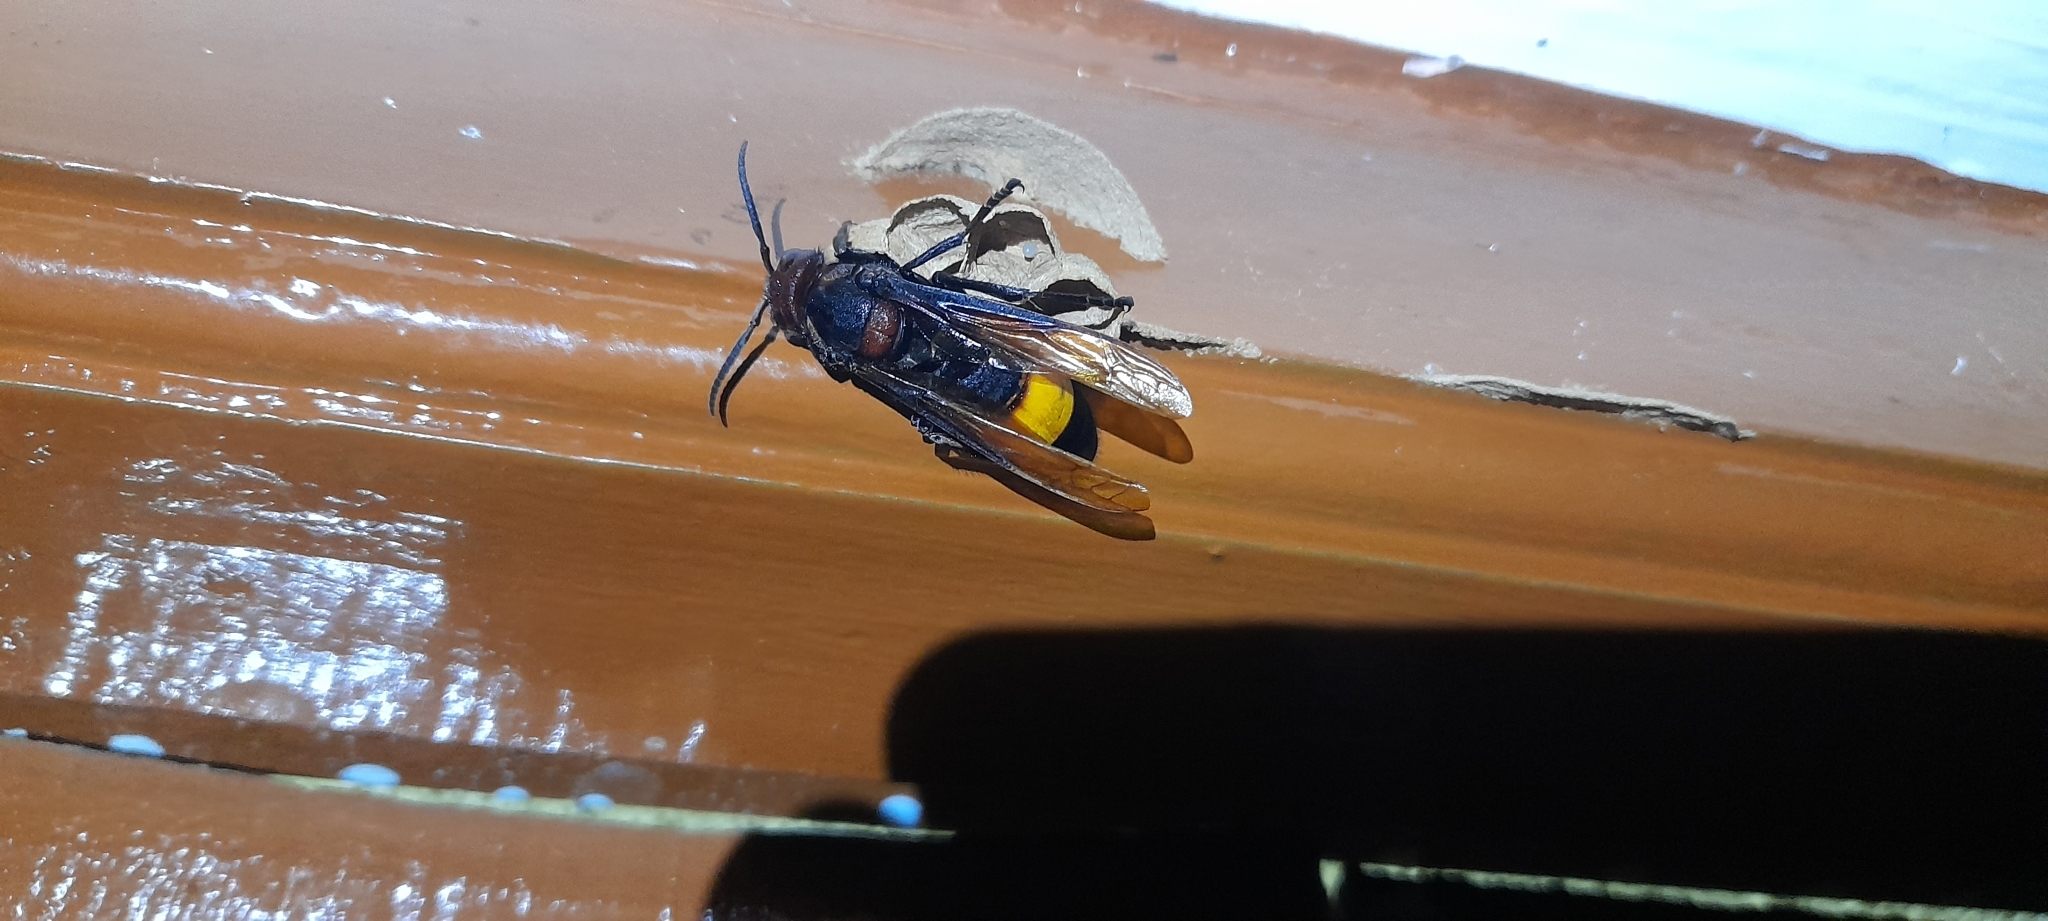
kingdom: Animalia
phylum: Arthropoda
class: Insecta
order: Hymenoptera
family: Vespidae
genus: Vespa
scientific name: Vespa tropica
